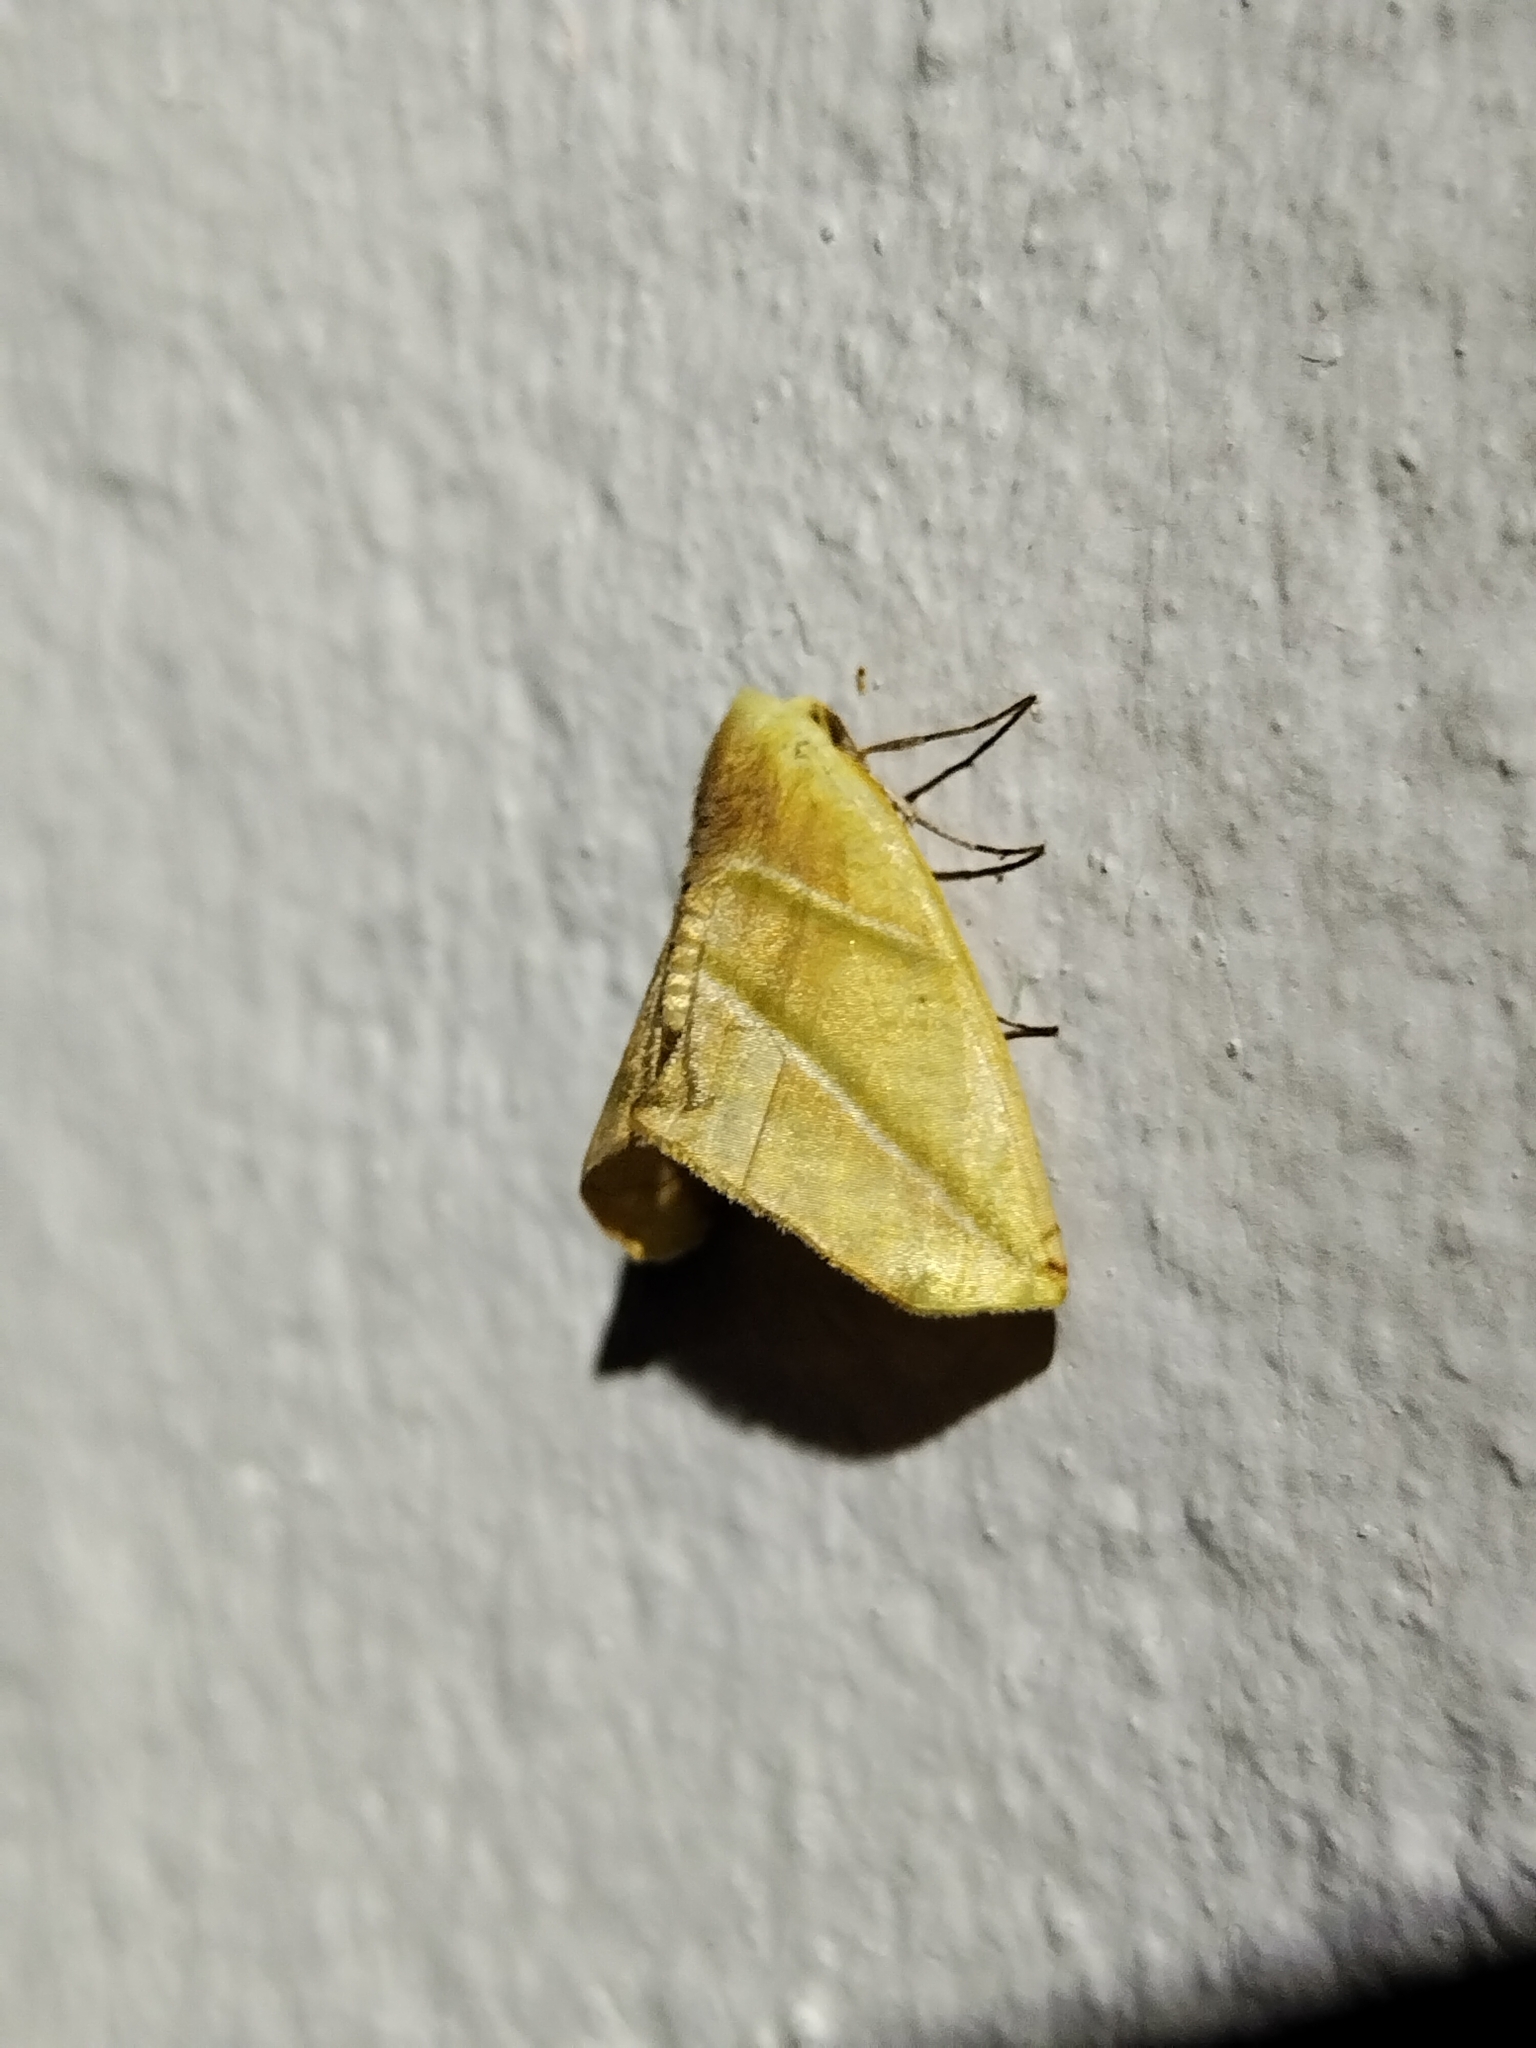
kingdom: Animalia
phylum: Arthropoda
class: Insecta
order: Lepidoptera
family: Geometridae
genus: Sicya
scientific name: Sicya directaria
